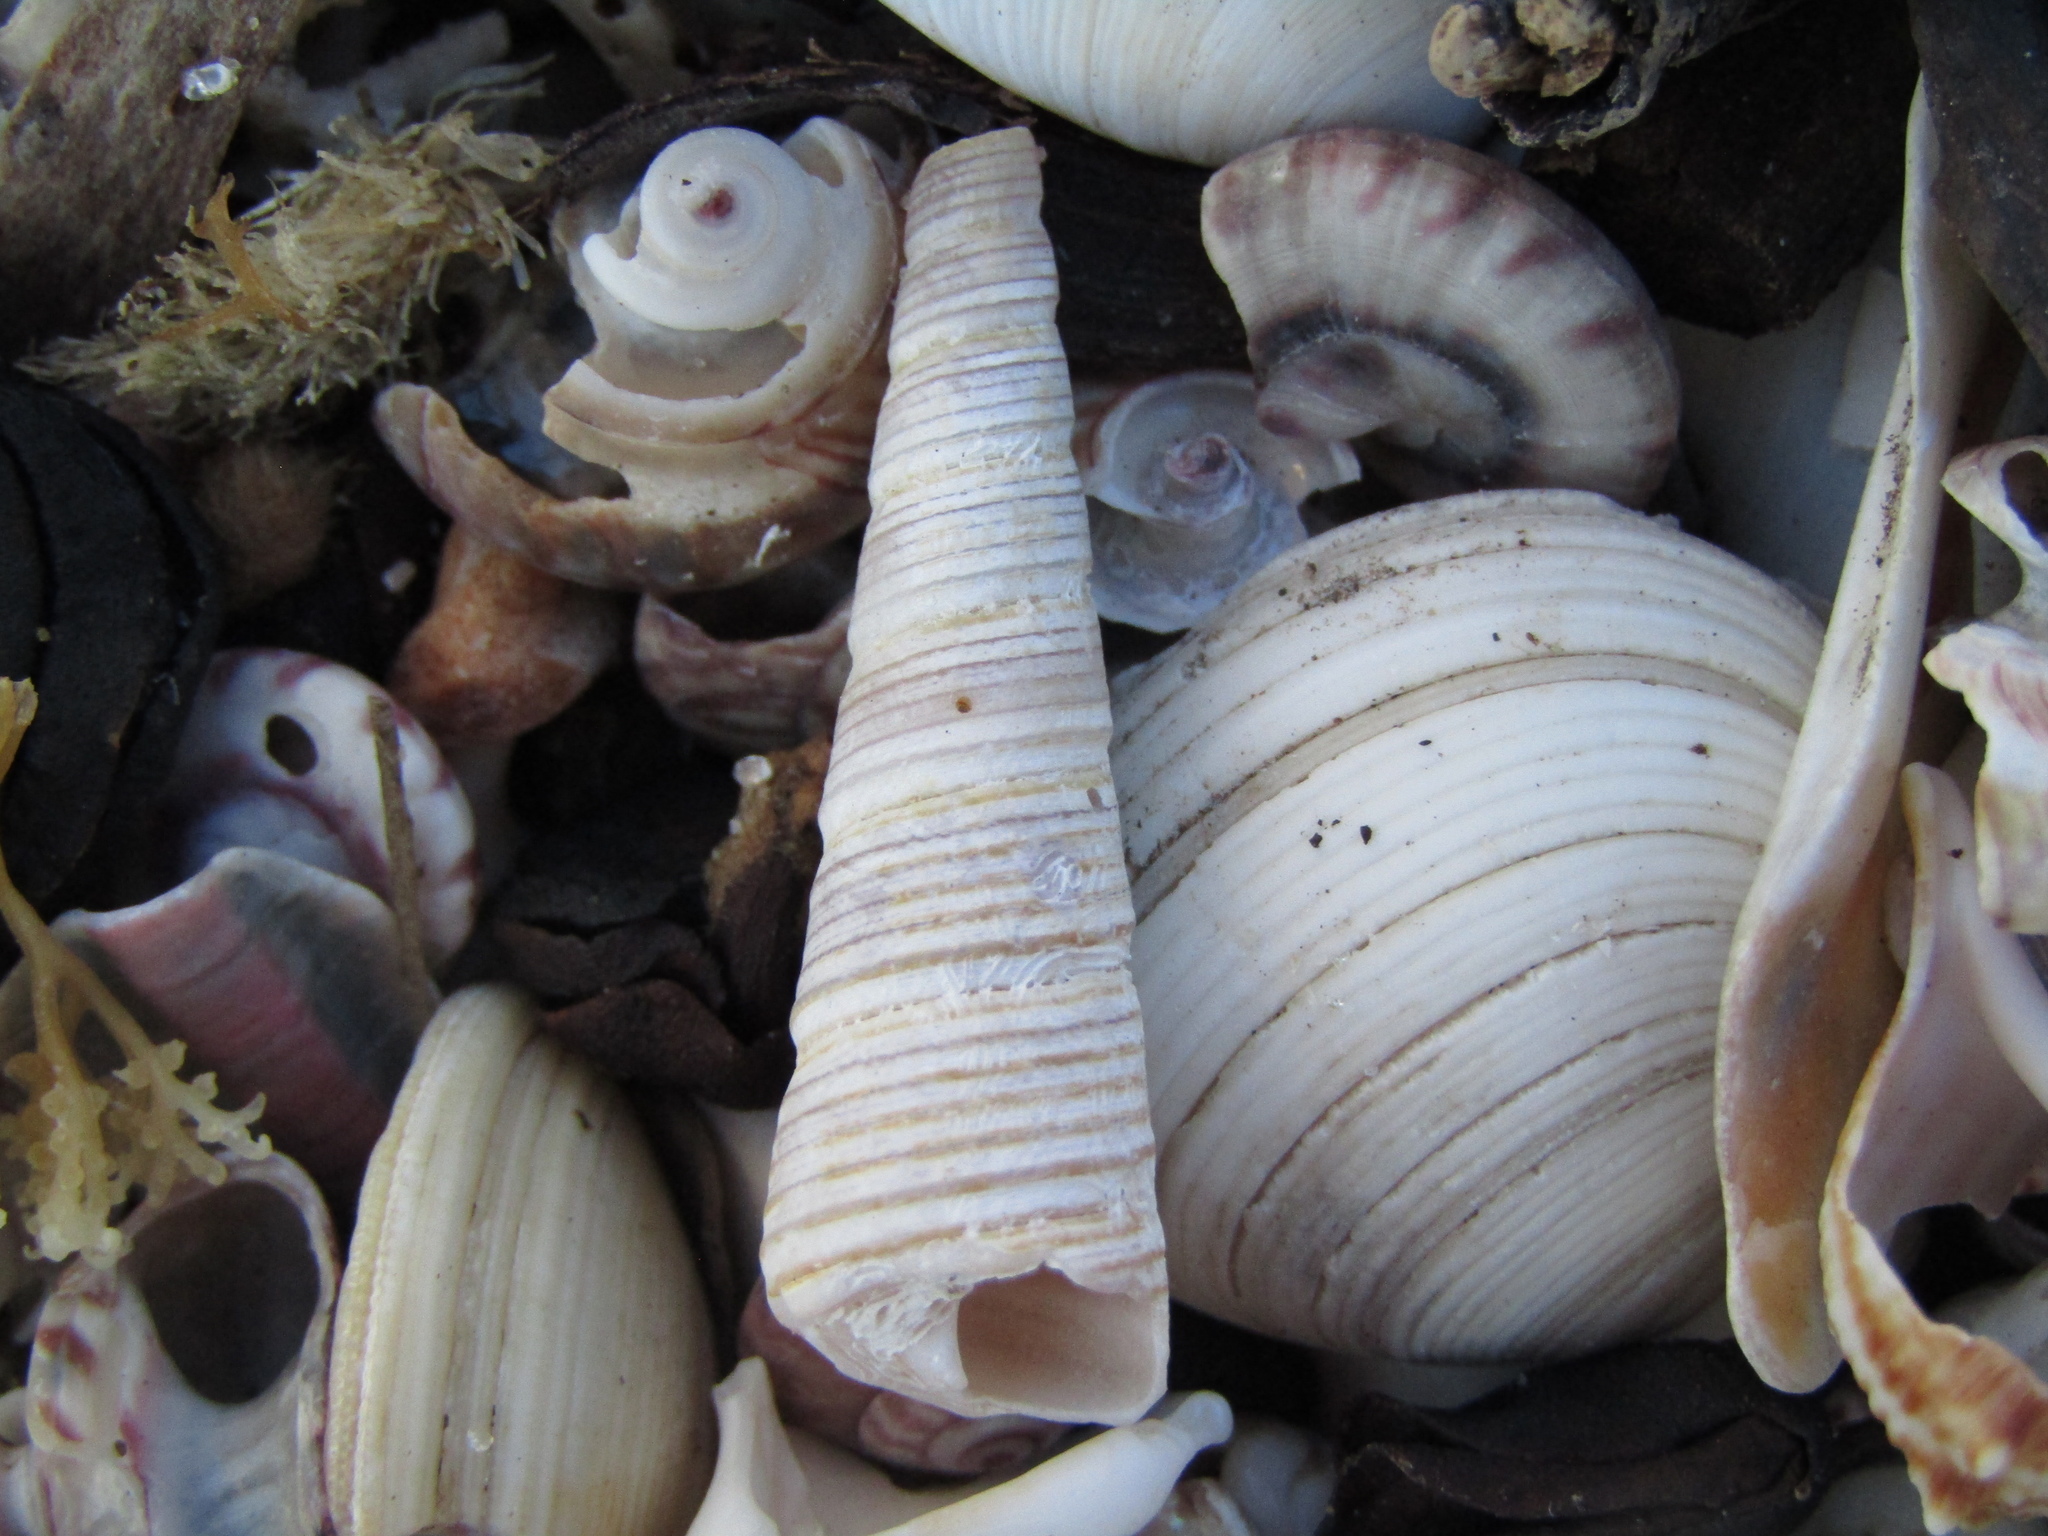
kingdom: Animalia
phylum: Mollusca
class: Gastropoda
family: Turritellidae
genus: Zeacolpus
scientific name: Zeacolpus vittatus
